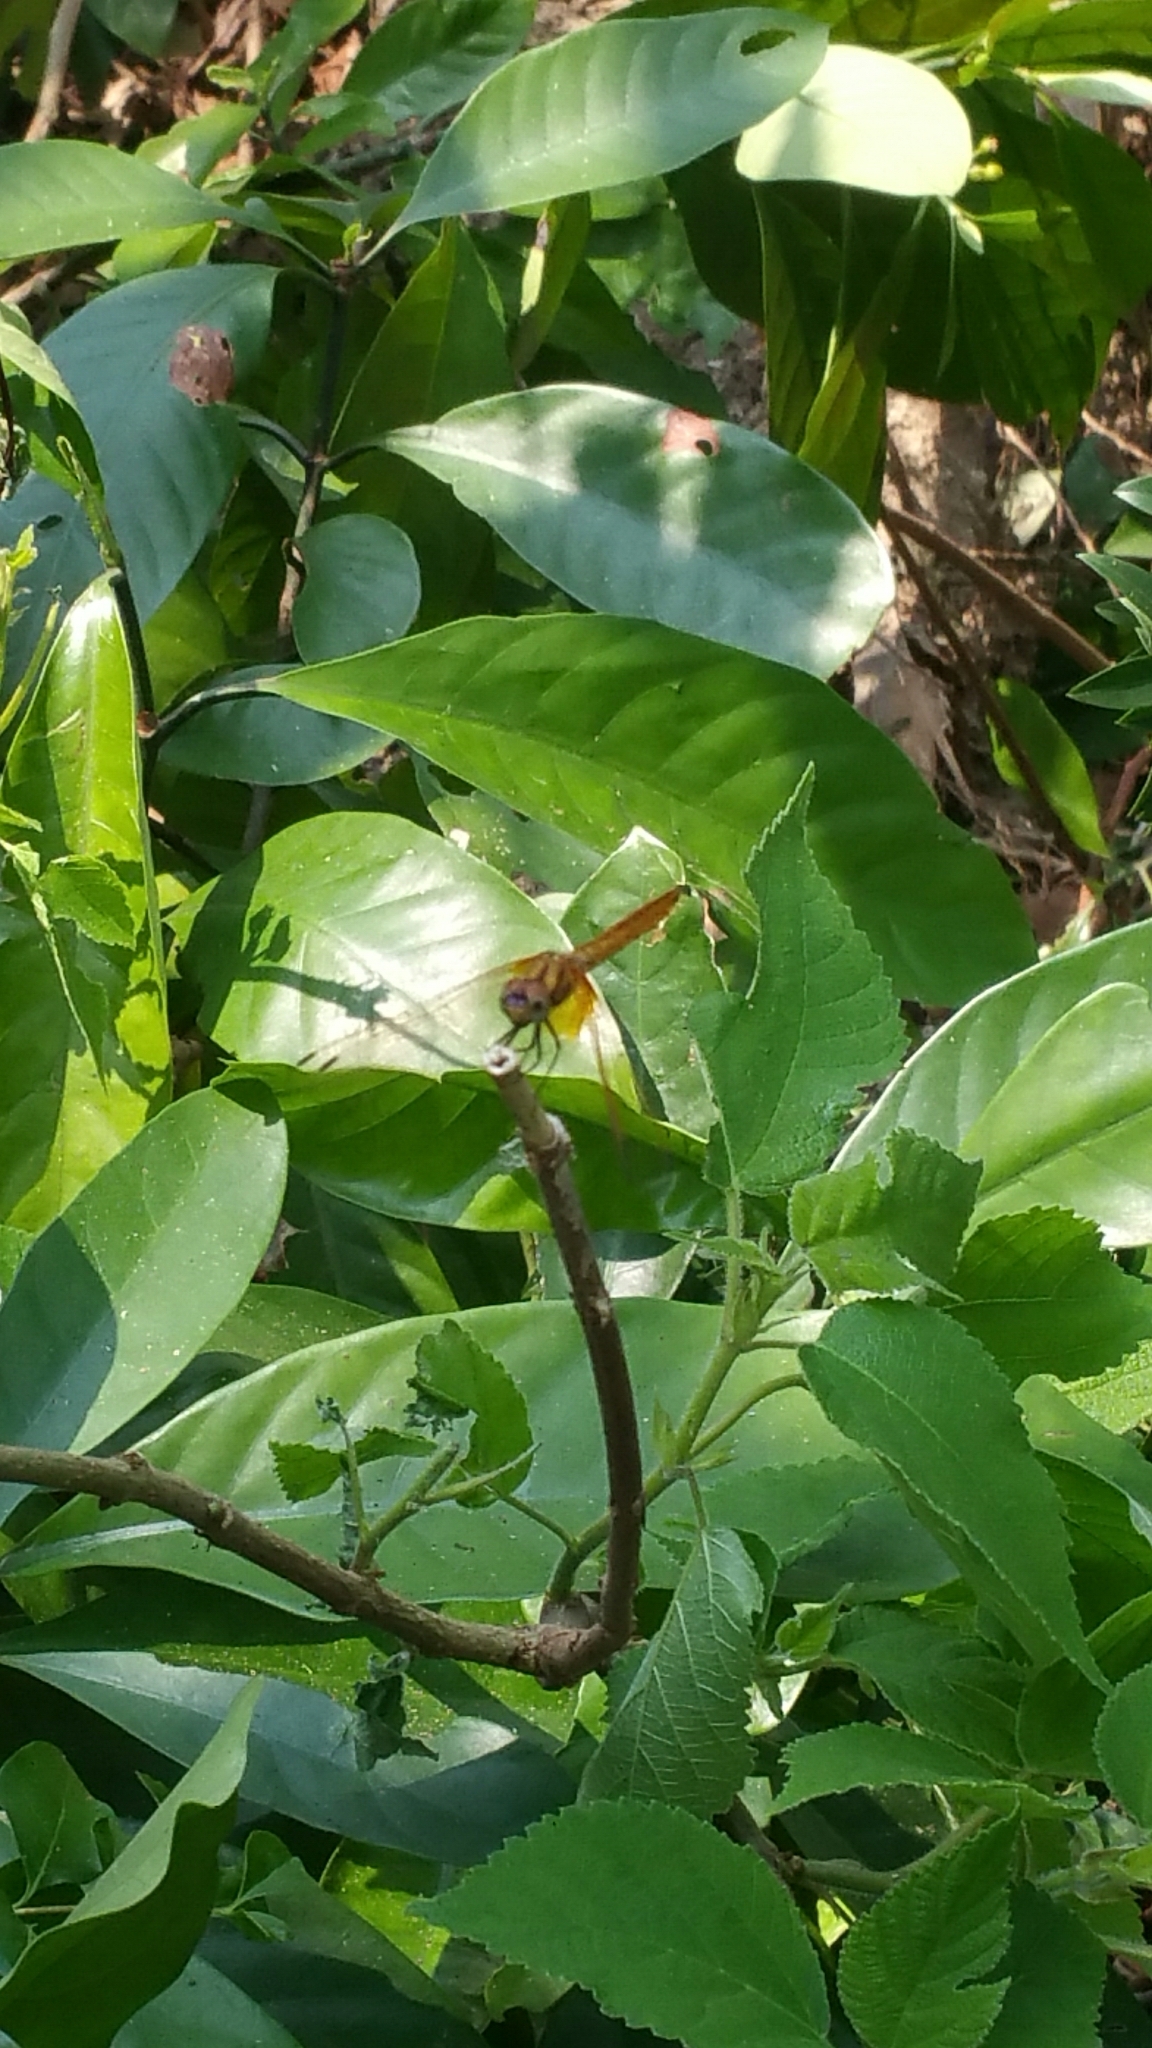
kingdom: Animalia
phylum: Arthropoda
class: Insecta
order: Odonata
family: Libellulidae
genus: Trithemis
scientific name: Trithemis aurora
